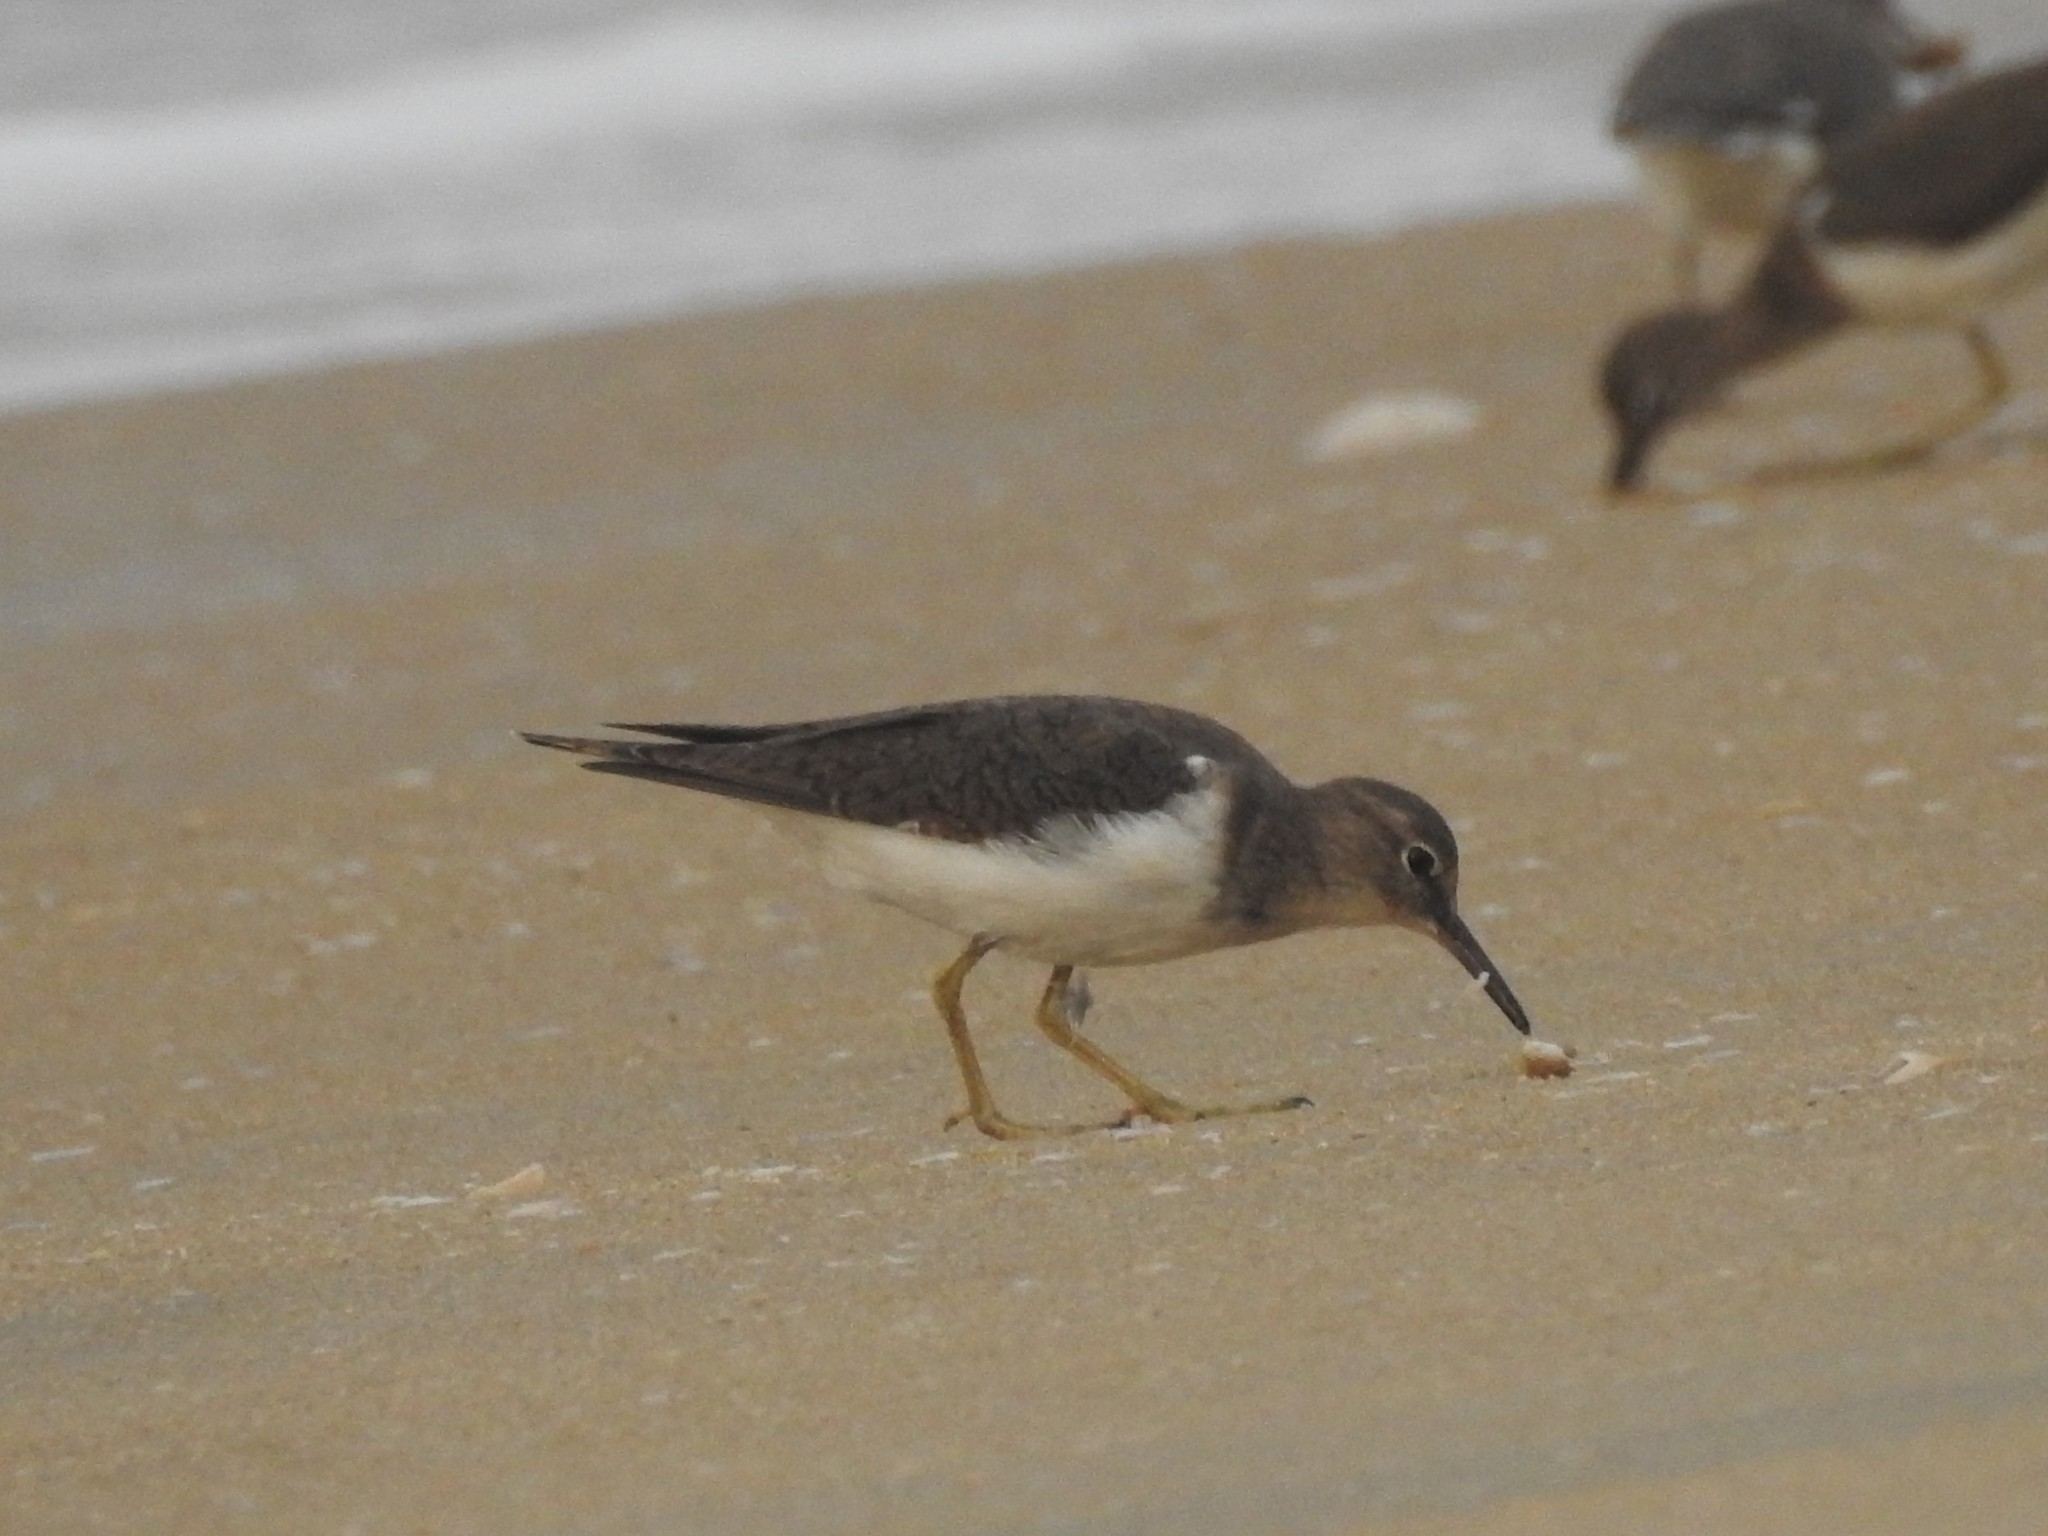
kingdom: Animalia
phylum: Chordata
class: Aves
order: Charadriiformes
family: Scolopacidae
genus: Actitis
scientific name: Actitis hypoleucos
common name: Common sandpiper
